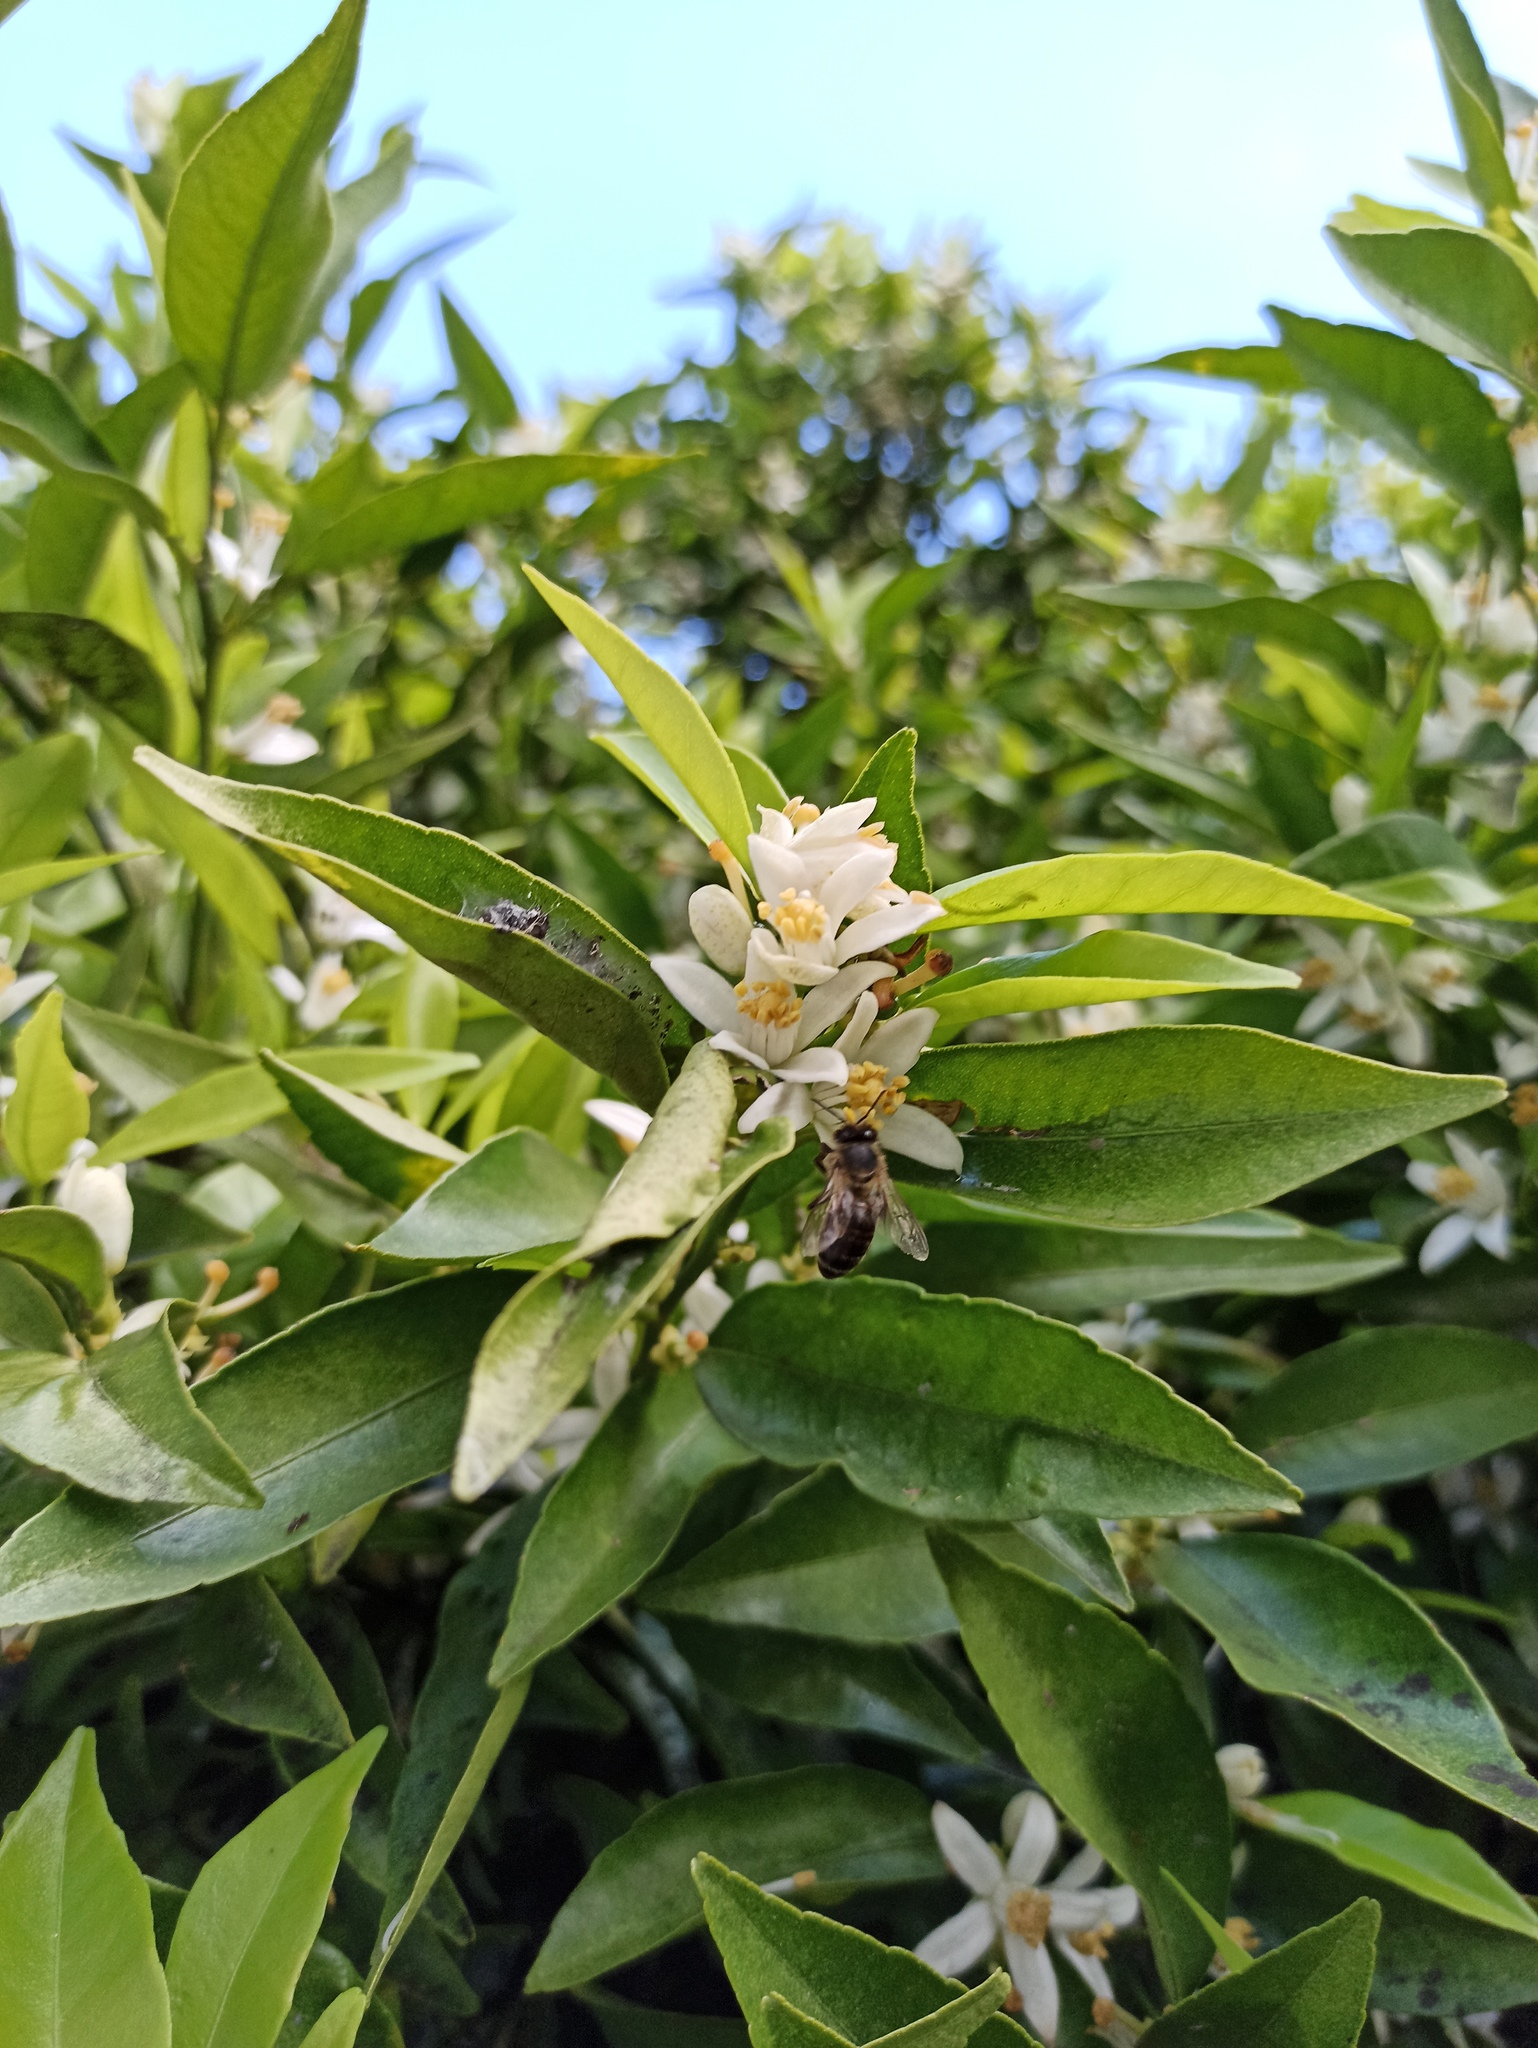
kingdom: Animalia
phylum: Arthropoda
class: Insecta
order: Hymenoptera
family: Apidae
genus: Apis
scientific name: Apis mellifera
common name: Honey bee
